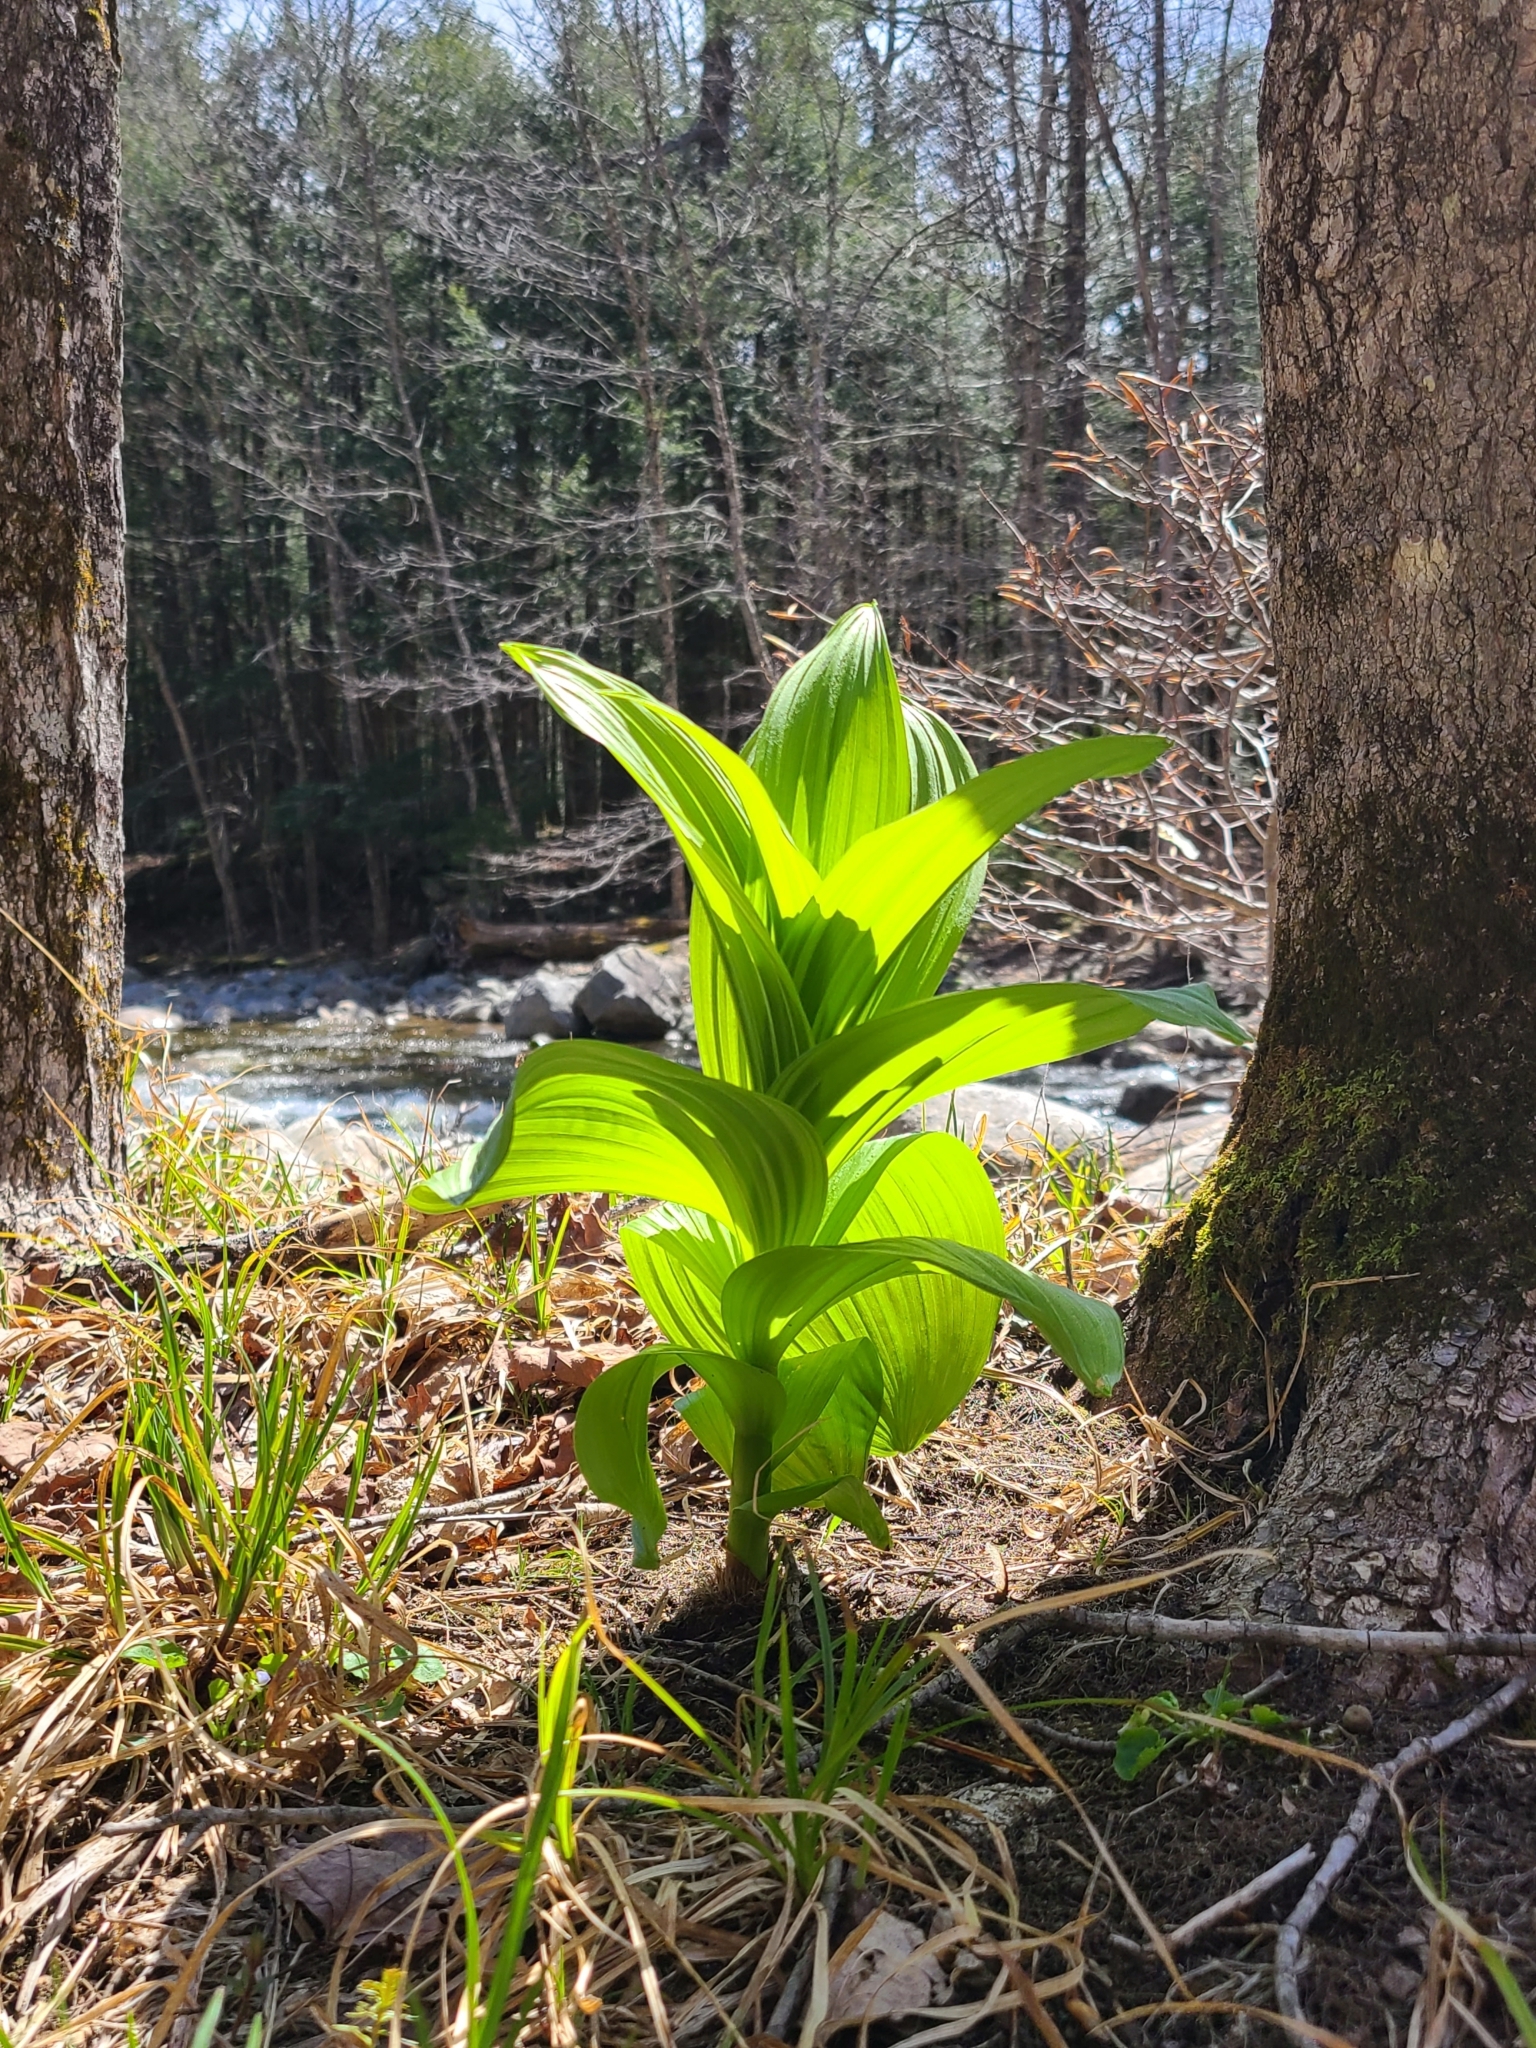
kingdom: Plantae
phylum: Tracheophyta
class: Liliopsida
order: Liliales
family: Melanthiaceae
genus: Veratrum
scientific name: Veratrum viride
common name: American false hellebore
